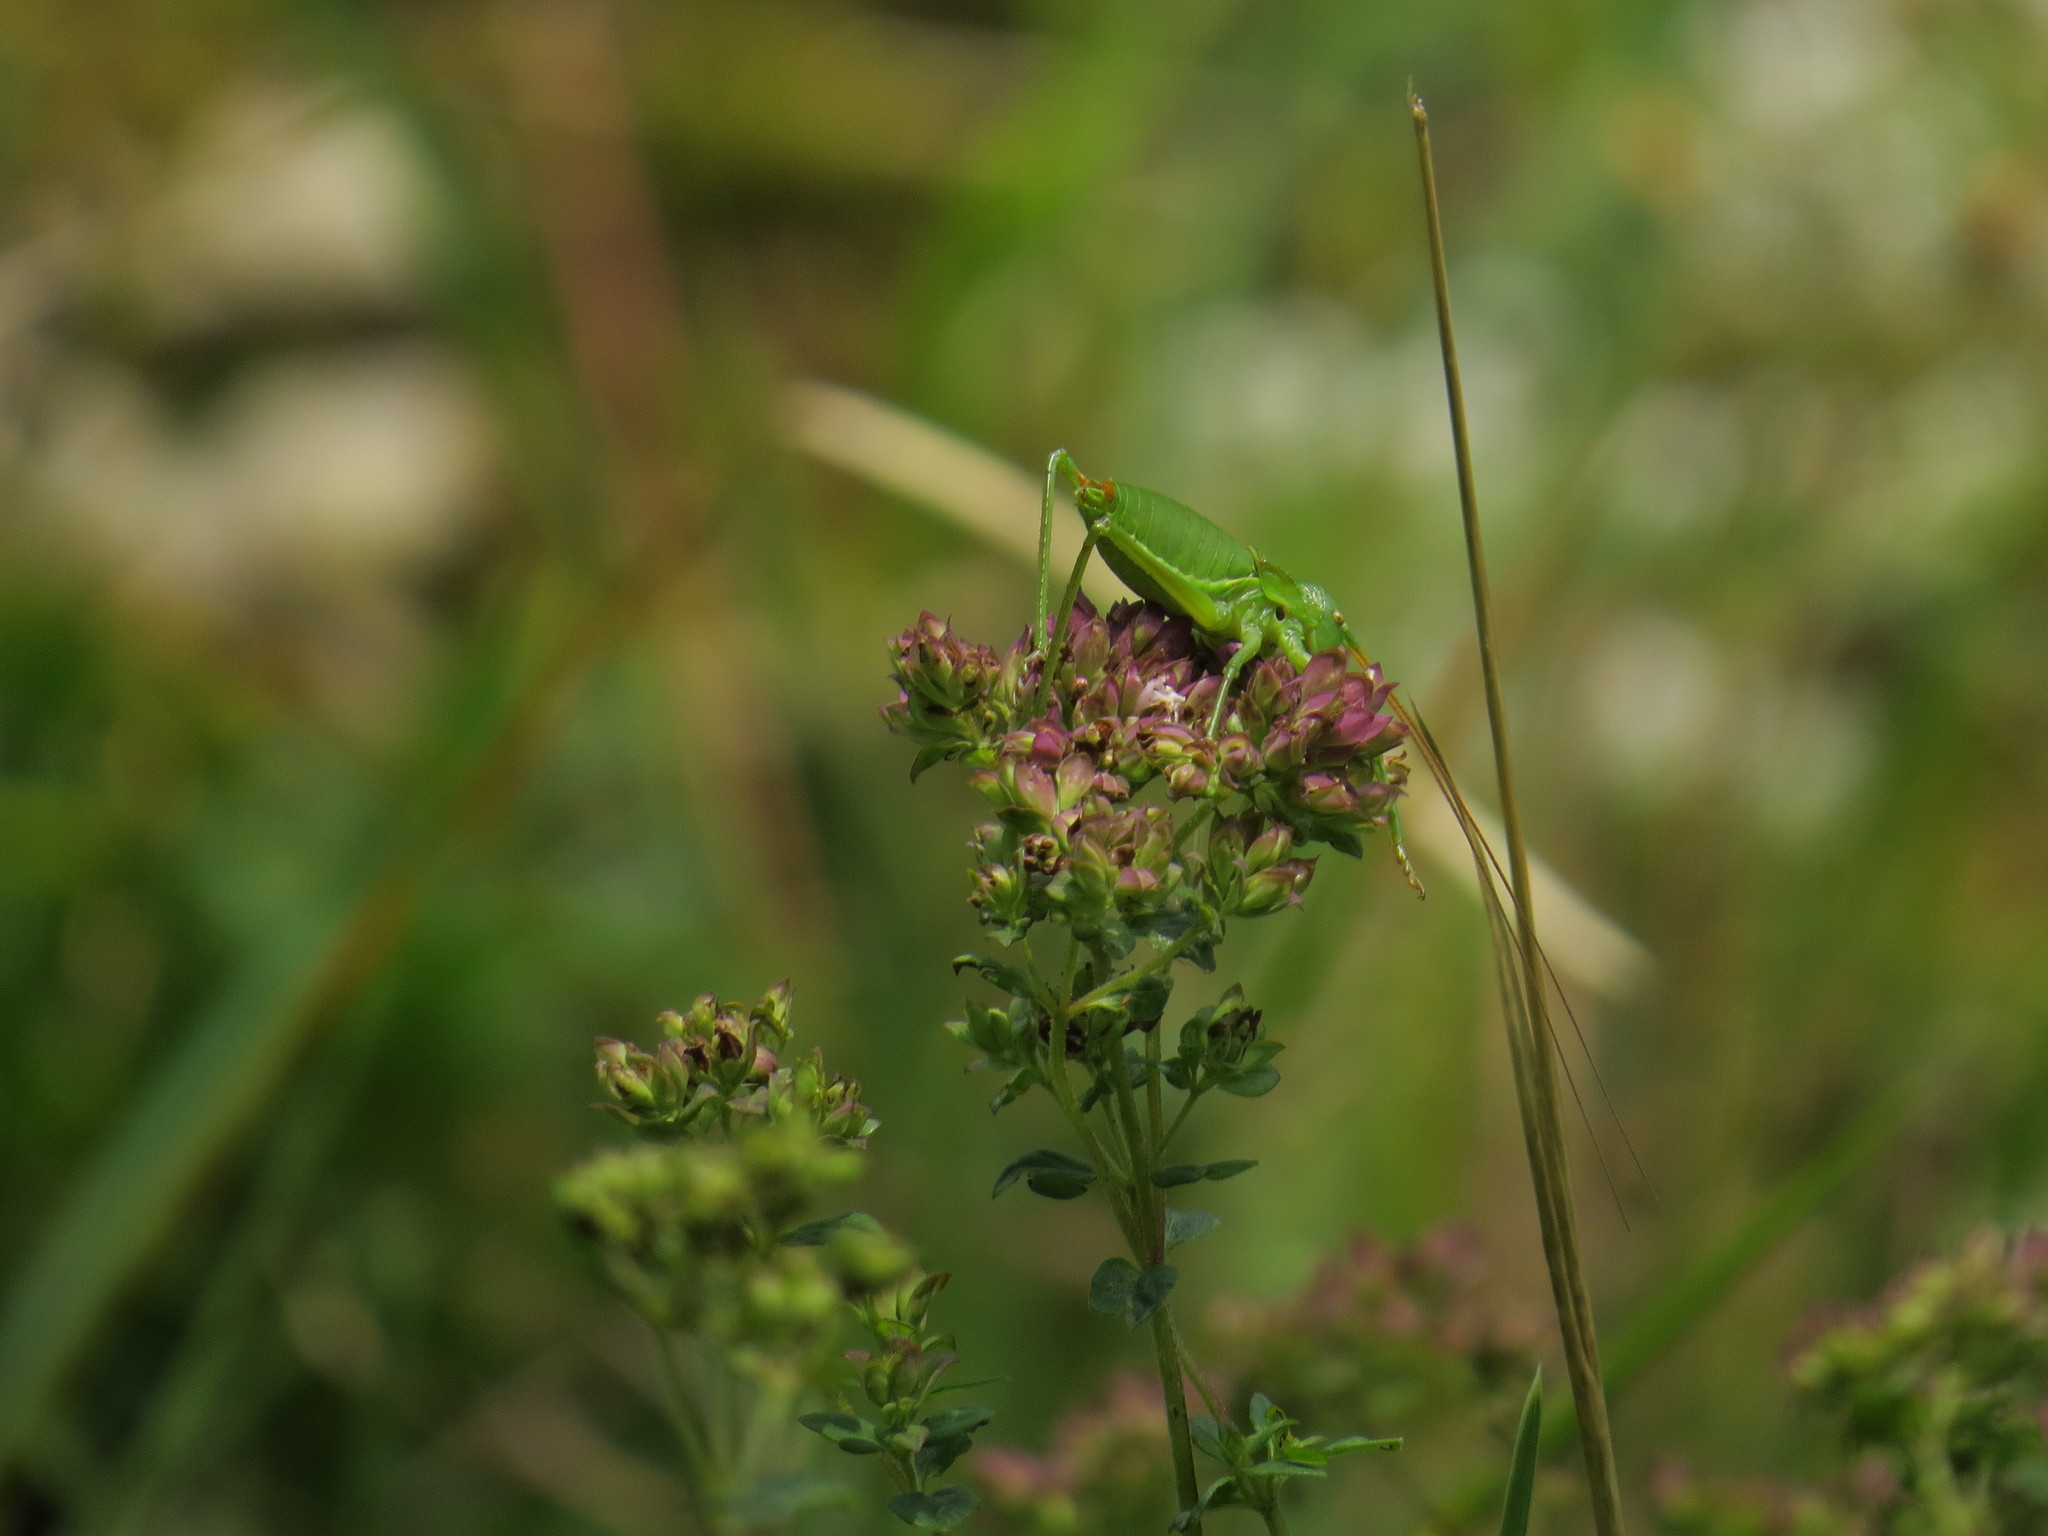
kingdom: Animalia
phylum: Arthropoda
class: Insecta
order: Orthoptera
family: Tettigoniidae
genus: Callicrania
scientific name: Callicrania ramburii
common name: Rambur's saddle bush-cricket
